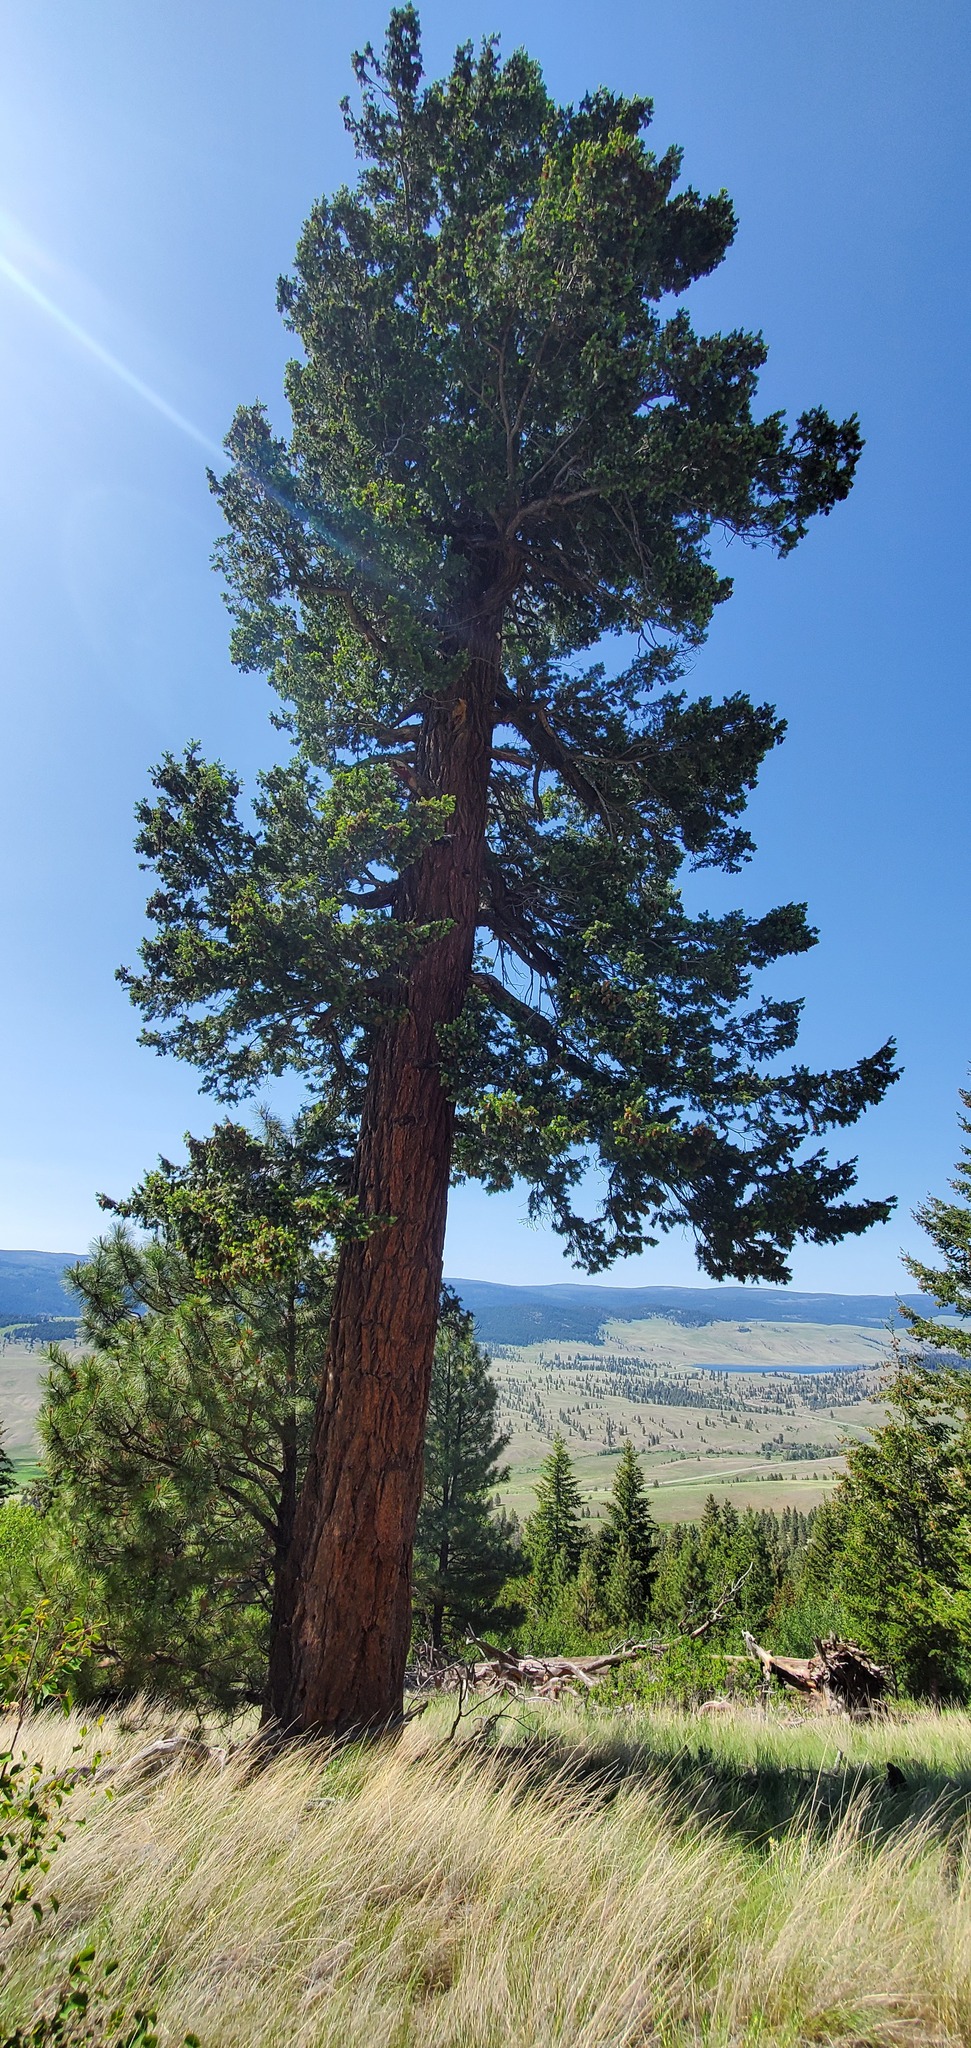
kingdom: Plantae
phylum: Tracheophyta
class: Pinopsida
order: Pinales
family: Pinaceae
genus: Pseudotsuga
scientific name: Pseudotsuga menziesii
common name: Douglas fir
